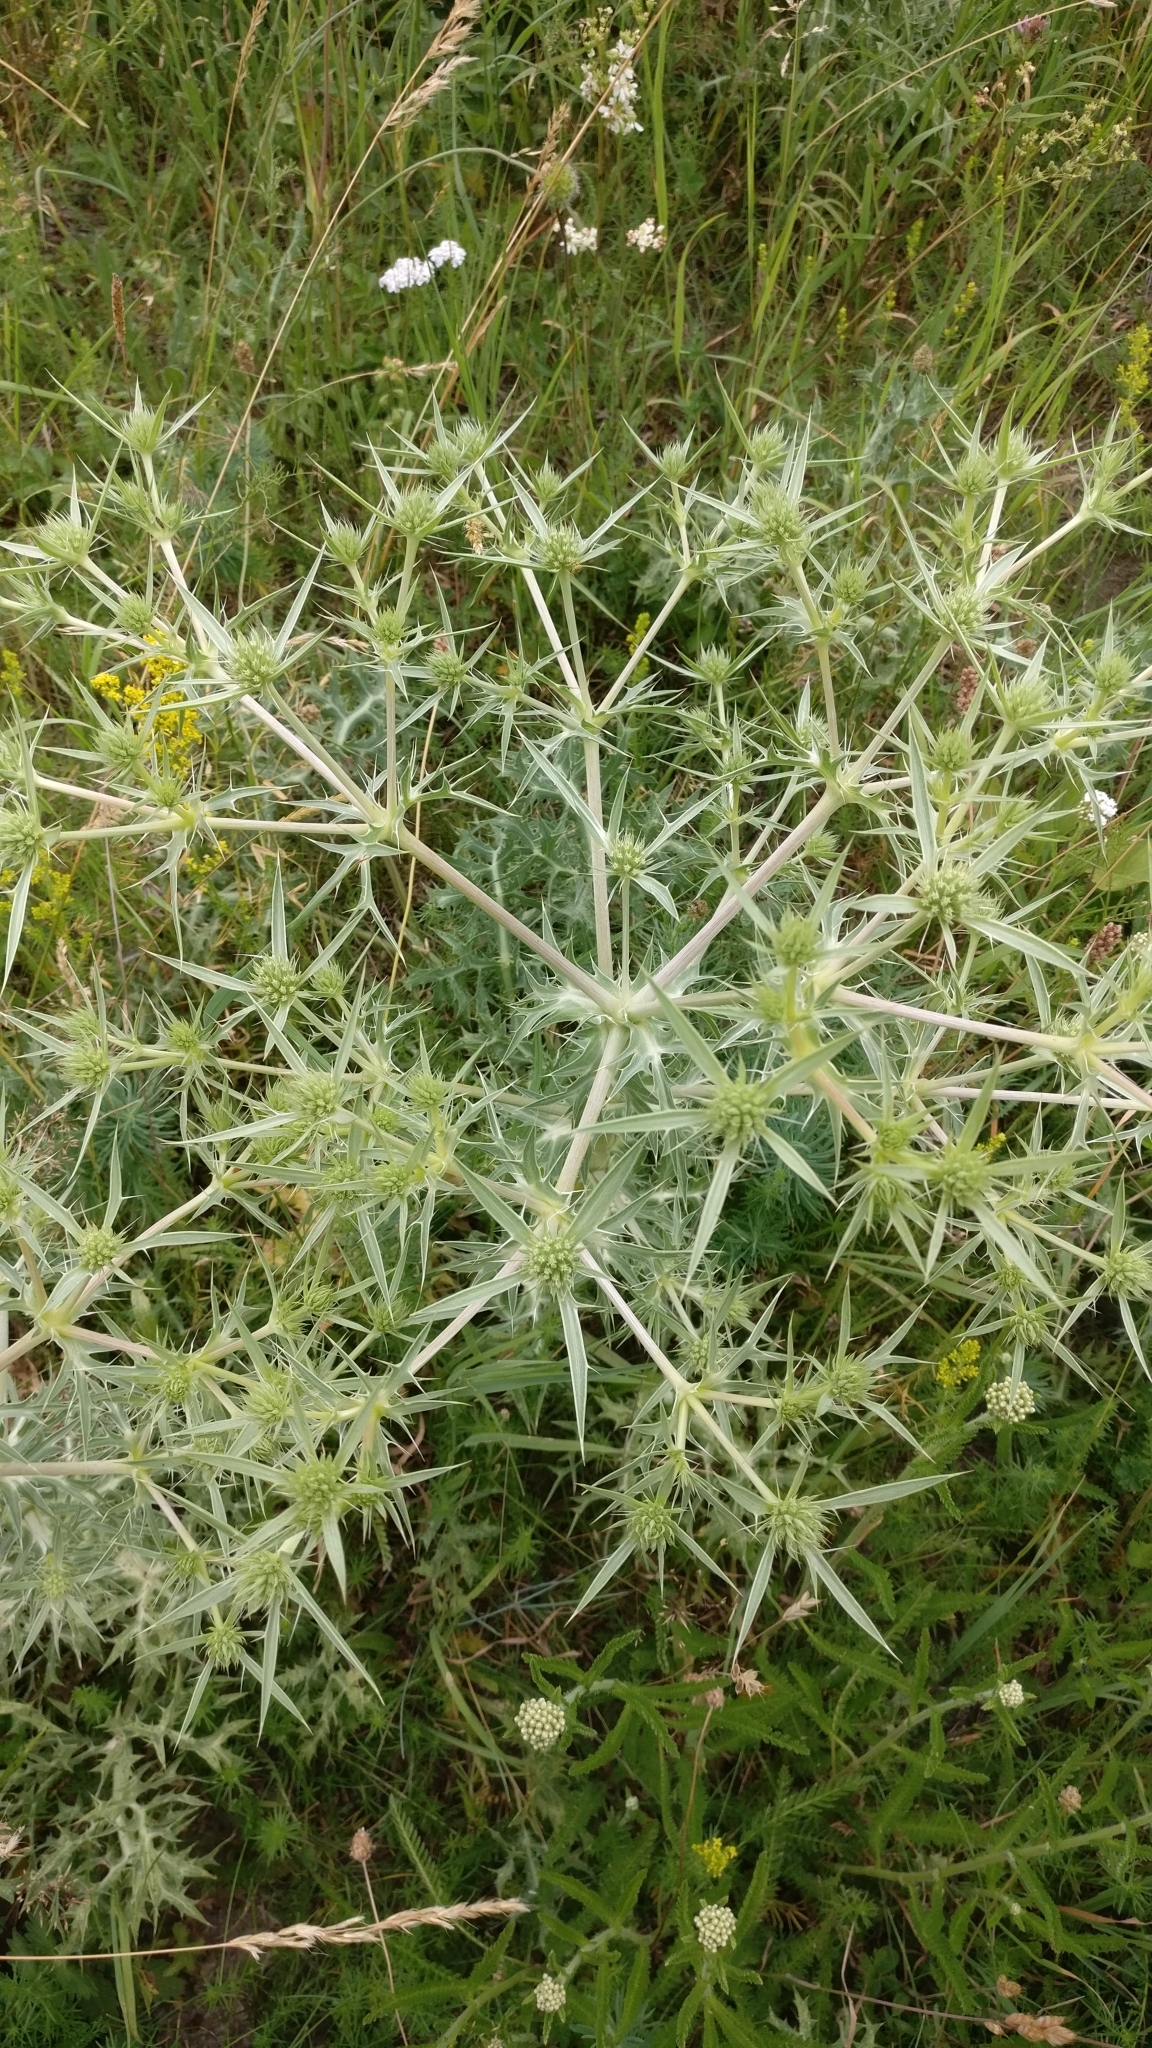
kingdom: Plantae
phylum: Tracheophyta
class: Magnoliopsida
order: Apiales
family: Apiaceae
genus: Eryngium
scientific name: Eryngium campestre
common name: Field eryngo
